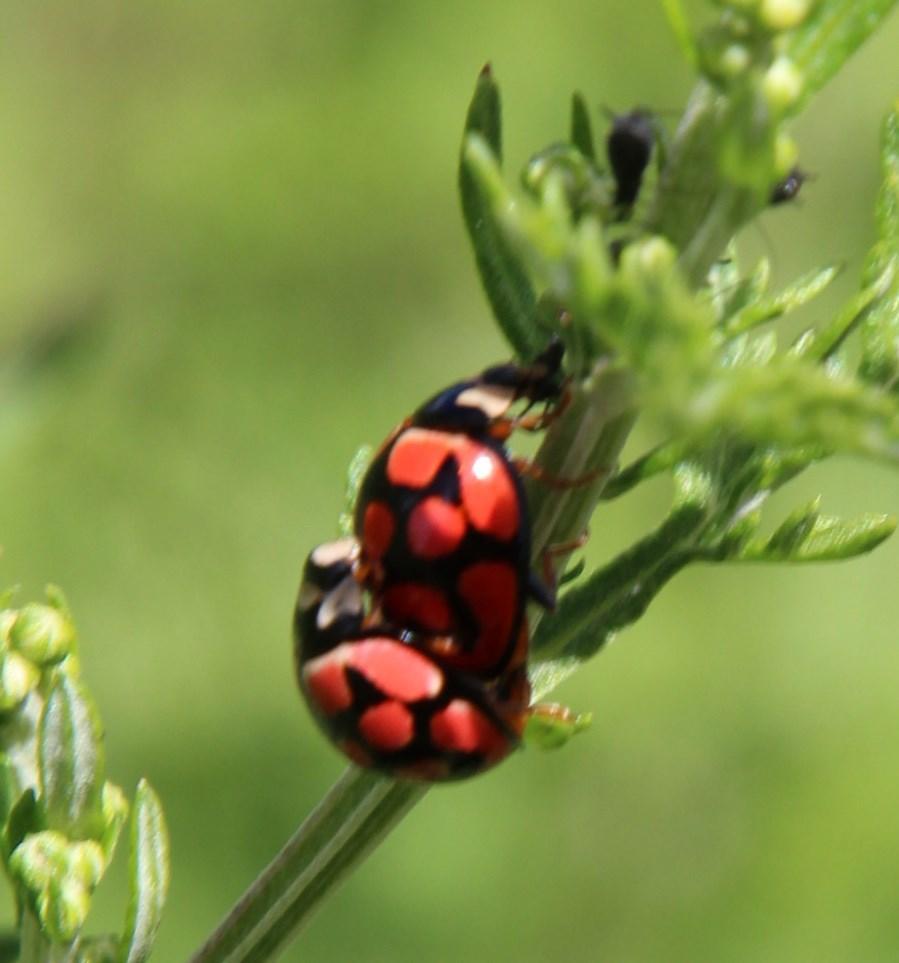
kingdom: Animalia
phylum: Arthropoda
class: Insecta
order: Coleoptera
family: Coccinellidae
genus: Cheilomenes
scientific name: Cheilomenes lunata
